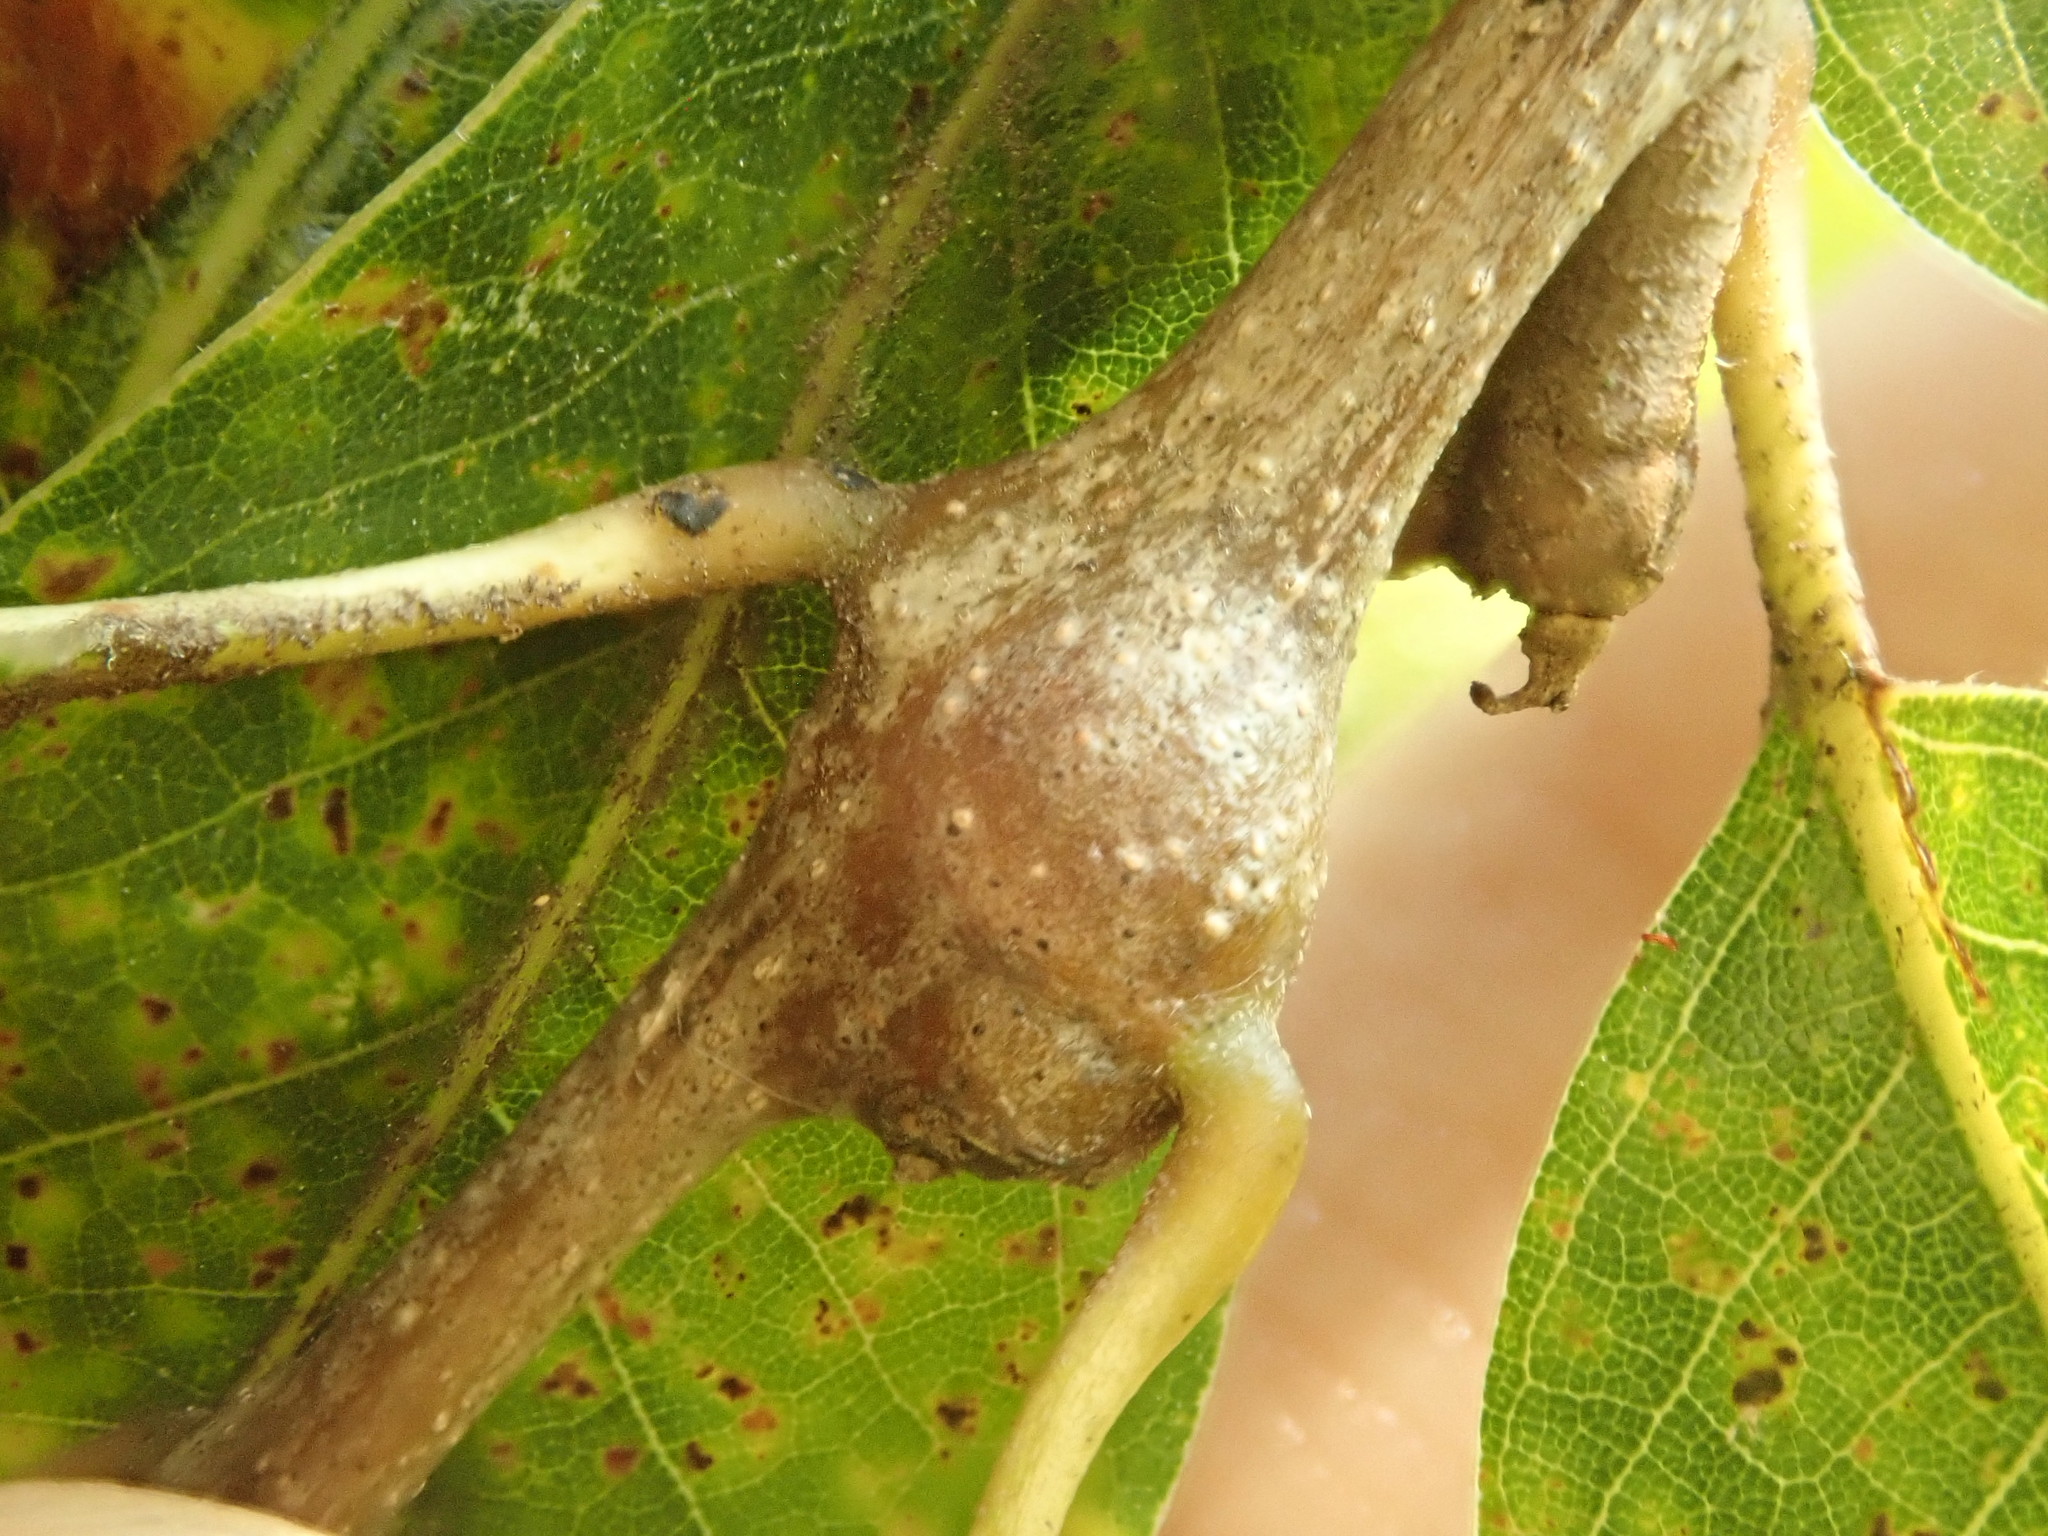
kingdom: Animalia
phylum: Arthropoda
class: Insecta
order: Hymenoptera
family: Cynipidae
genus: Zapatella
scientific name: Zapatella quercusphellos
